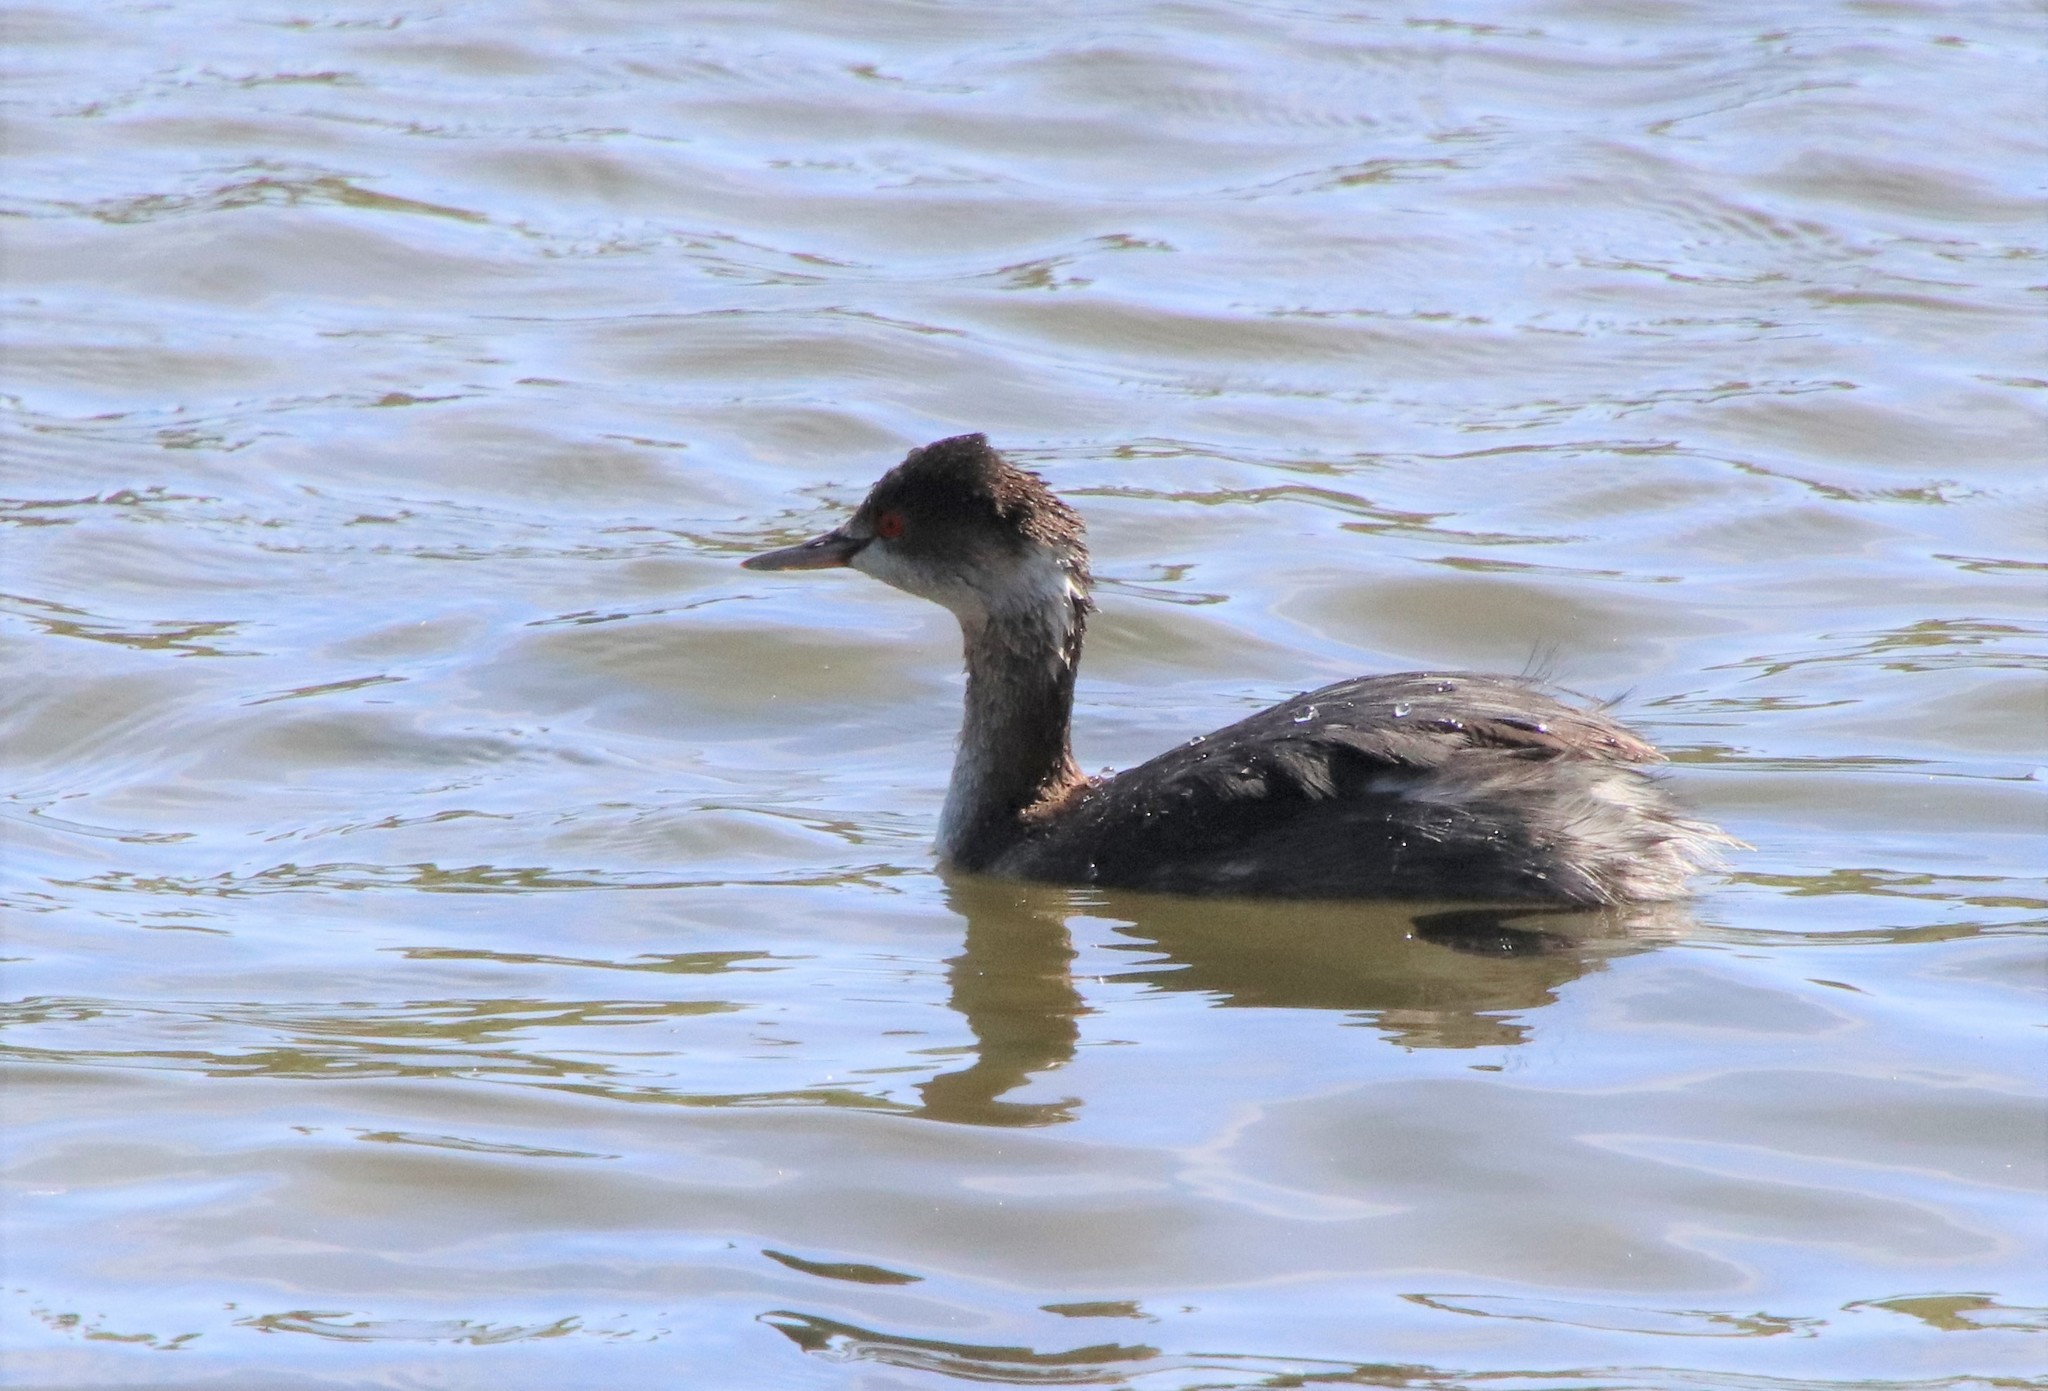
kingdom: Animalia
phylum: Chordata
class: Aves
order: Podicipediformes
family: Podicipedidae
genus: Podiceps
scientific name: Podiceps nigricollis
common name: Black-necked grebe
